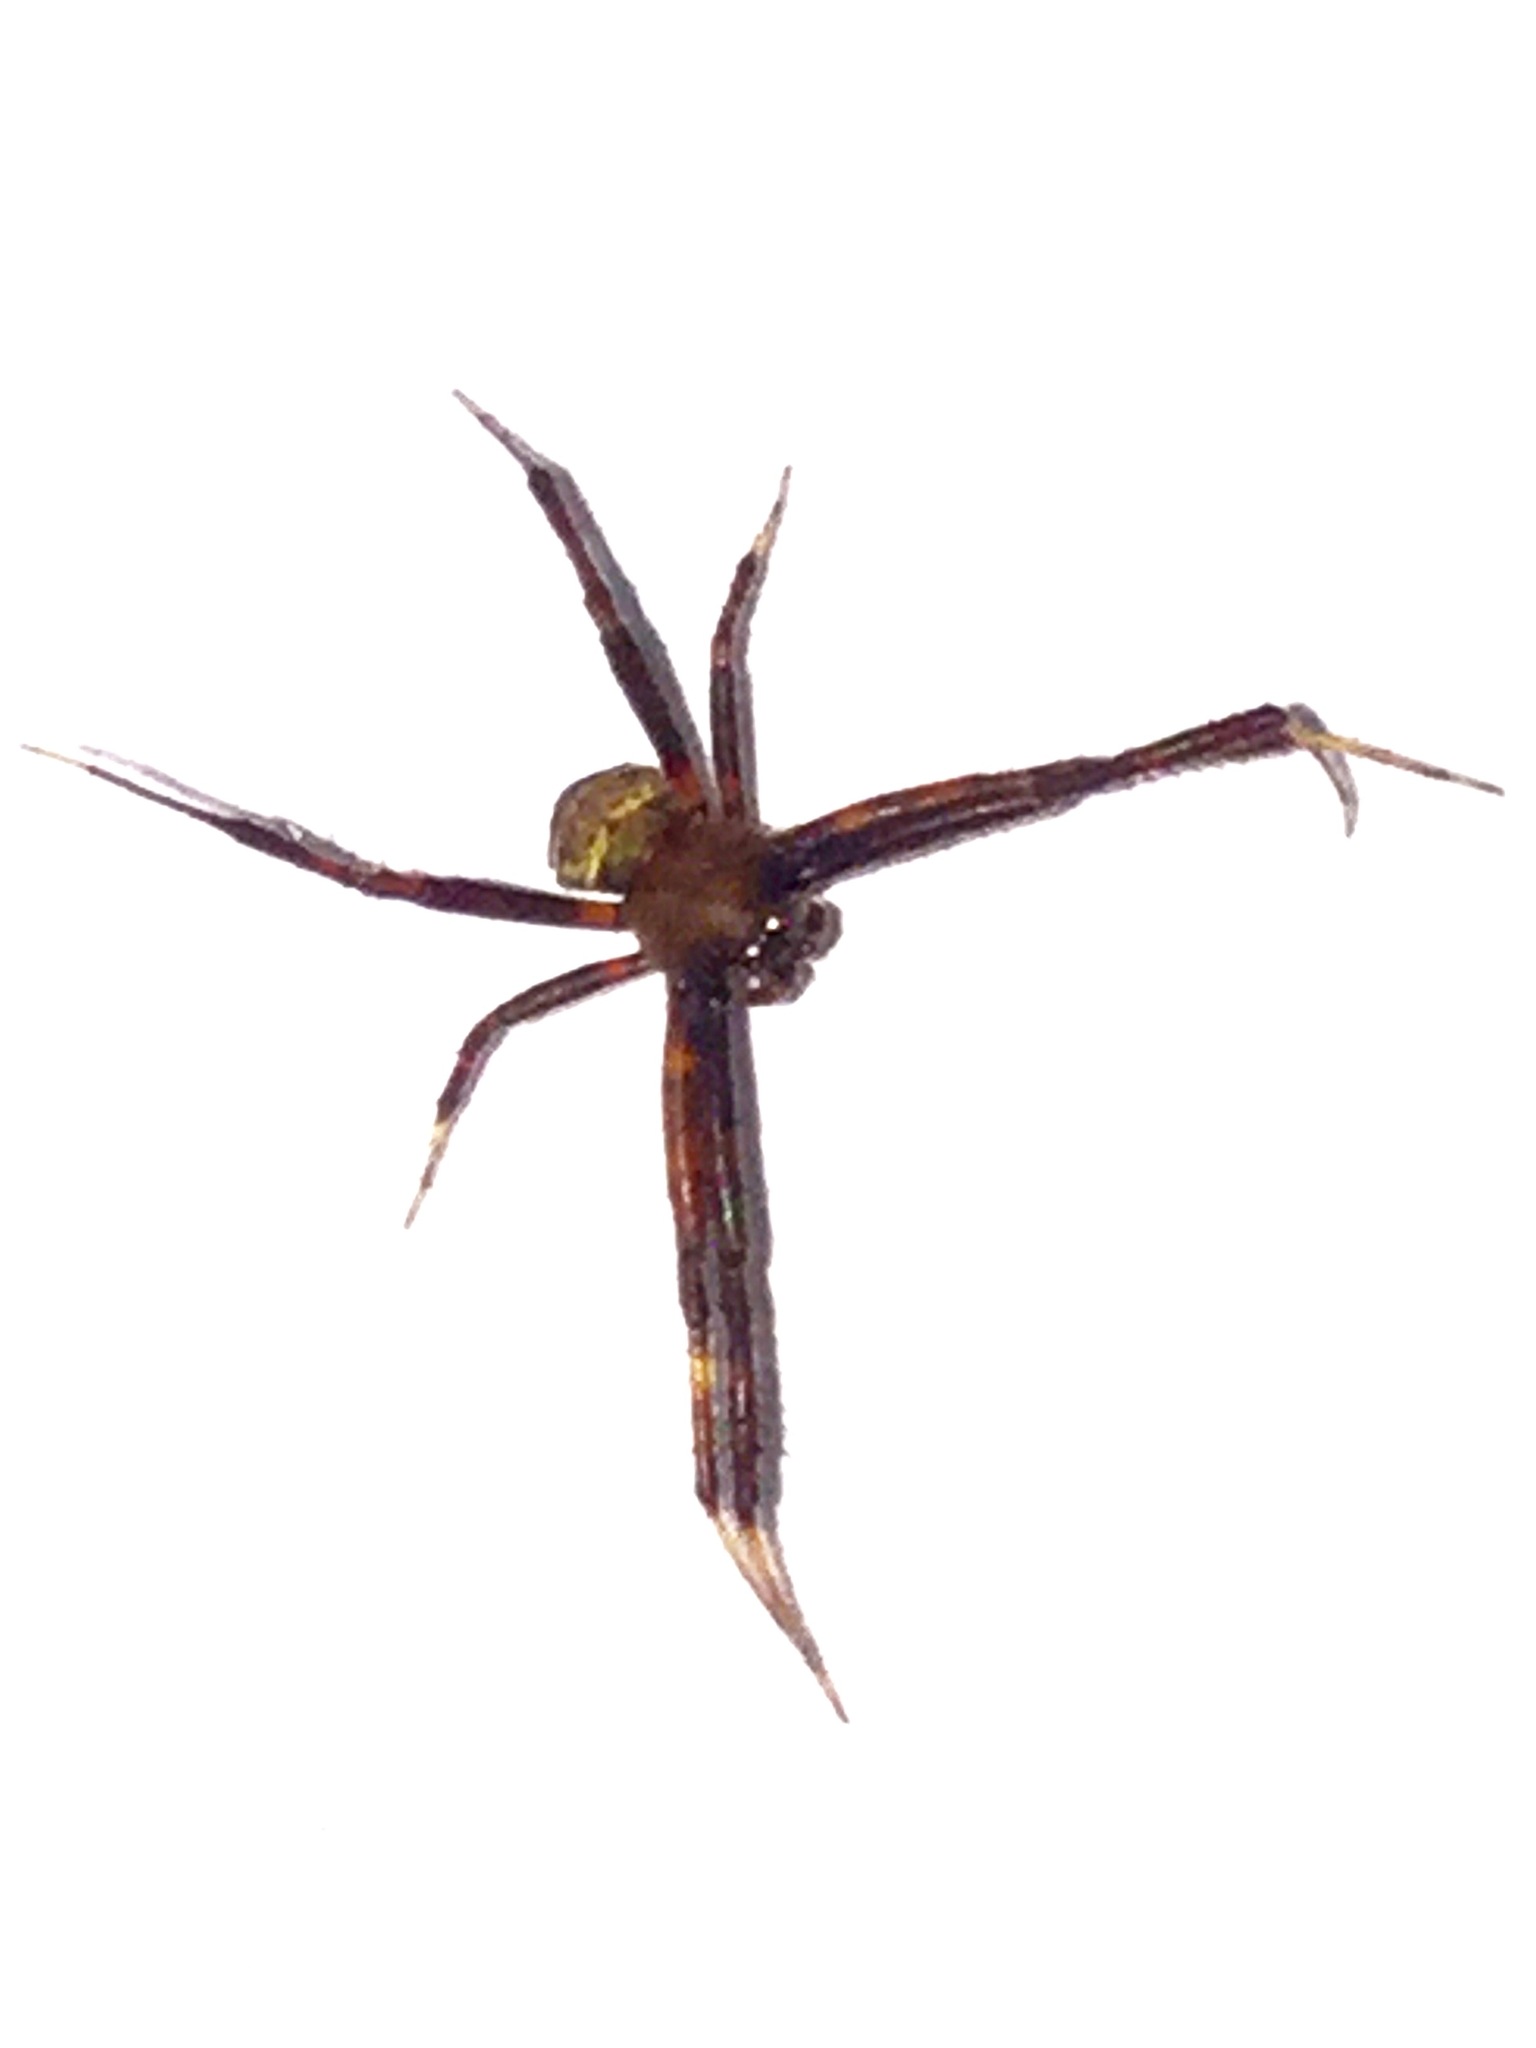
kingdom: Animalia
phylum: Arthropoda
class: Arachnida
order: Araneae
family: Araneidae
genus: Gea
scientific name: Gea heptagon
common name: Orb weavers
